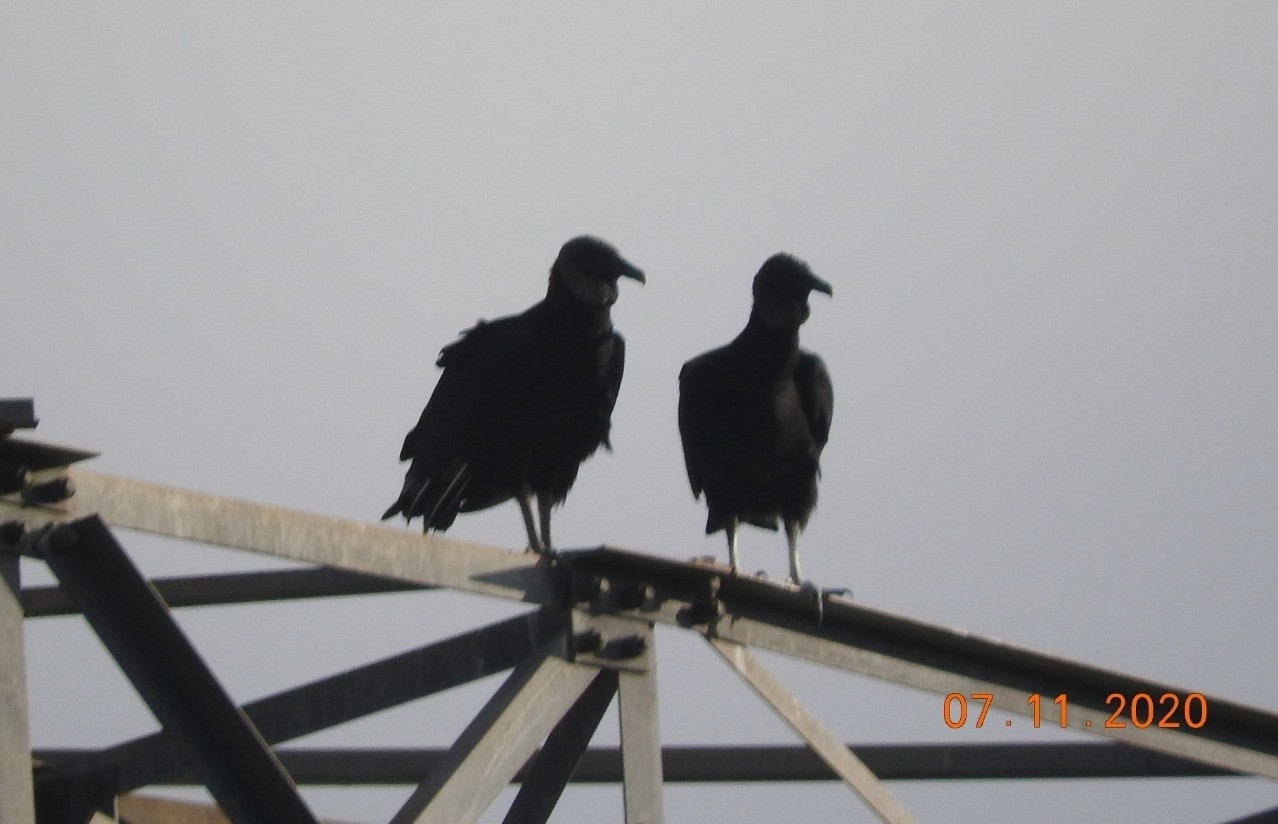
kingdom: Animalia
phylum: Chordata
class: Aves
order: Accipitriformes
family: Cathartidae
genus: Coragyps
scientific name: Coragyps atratus
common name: Black vulture
